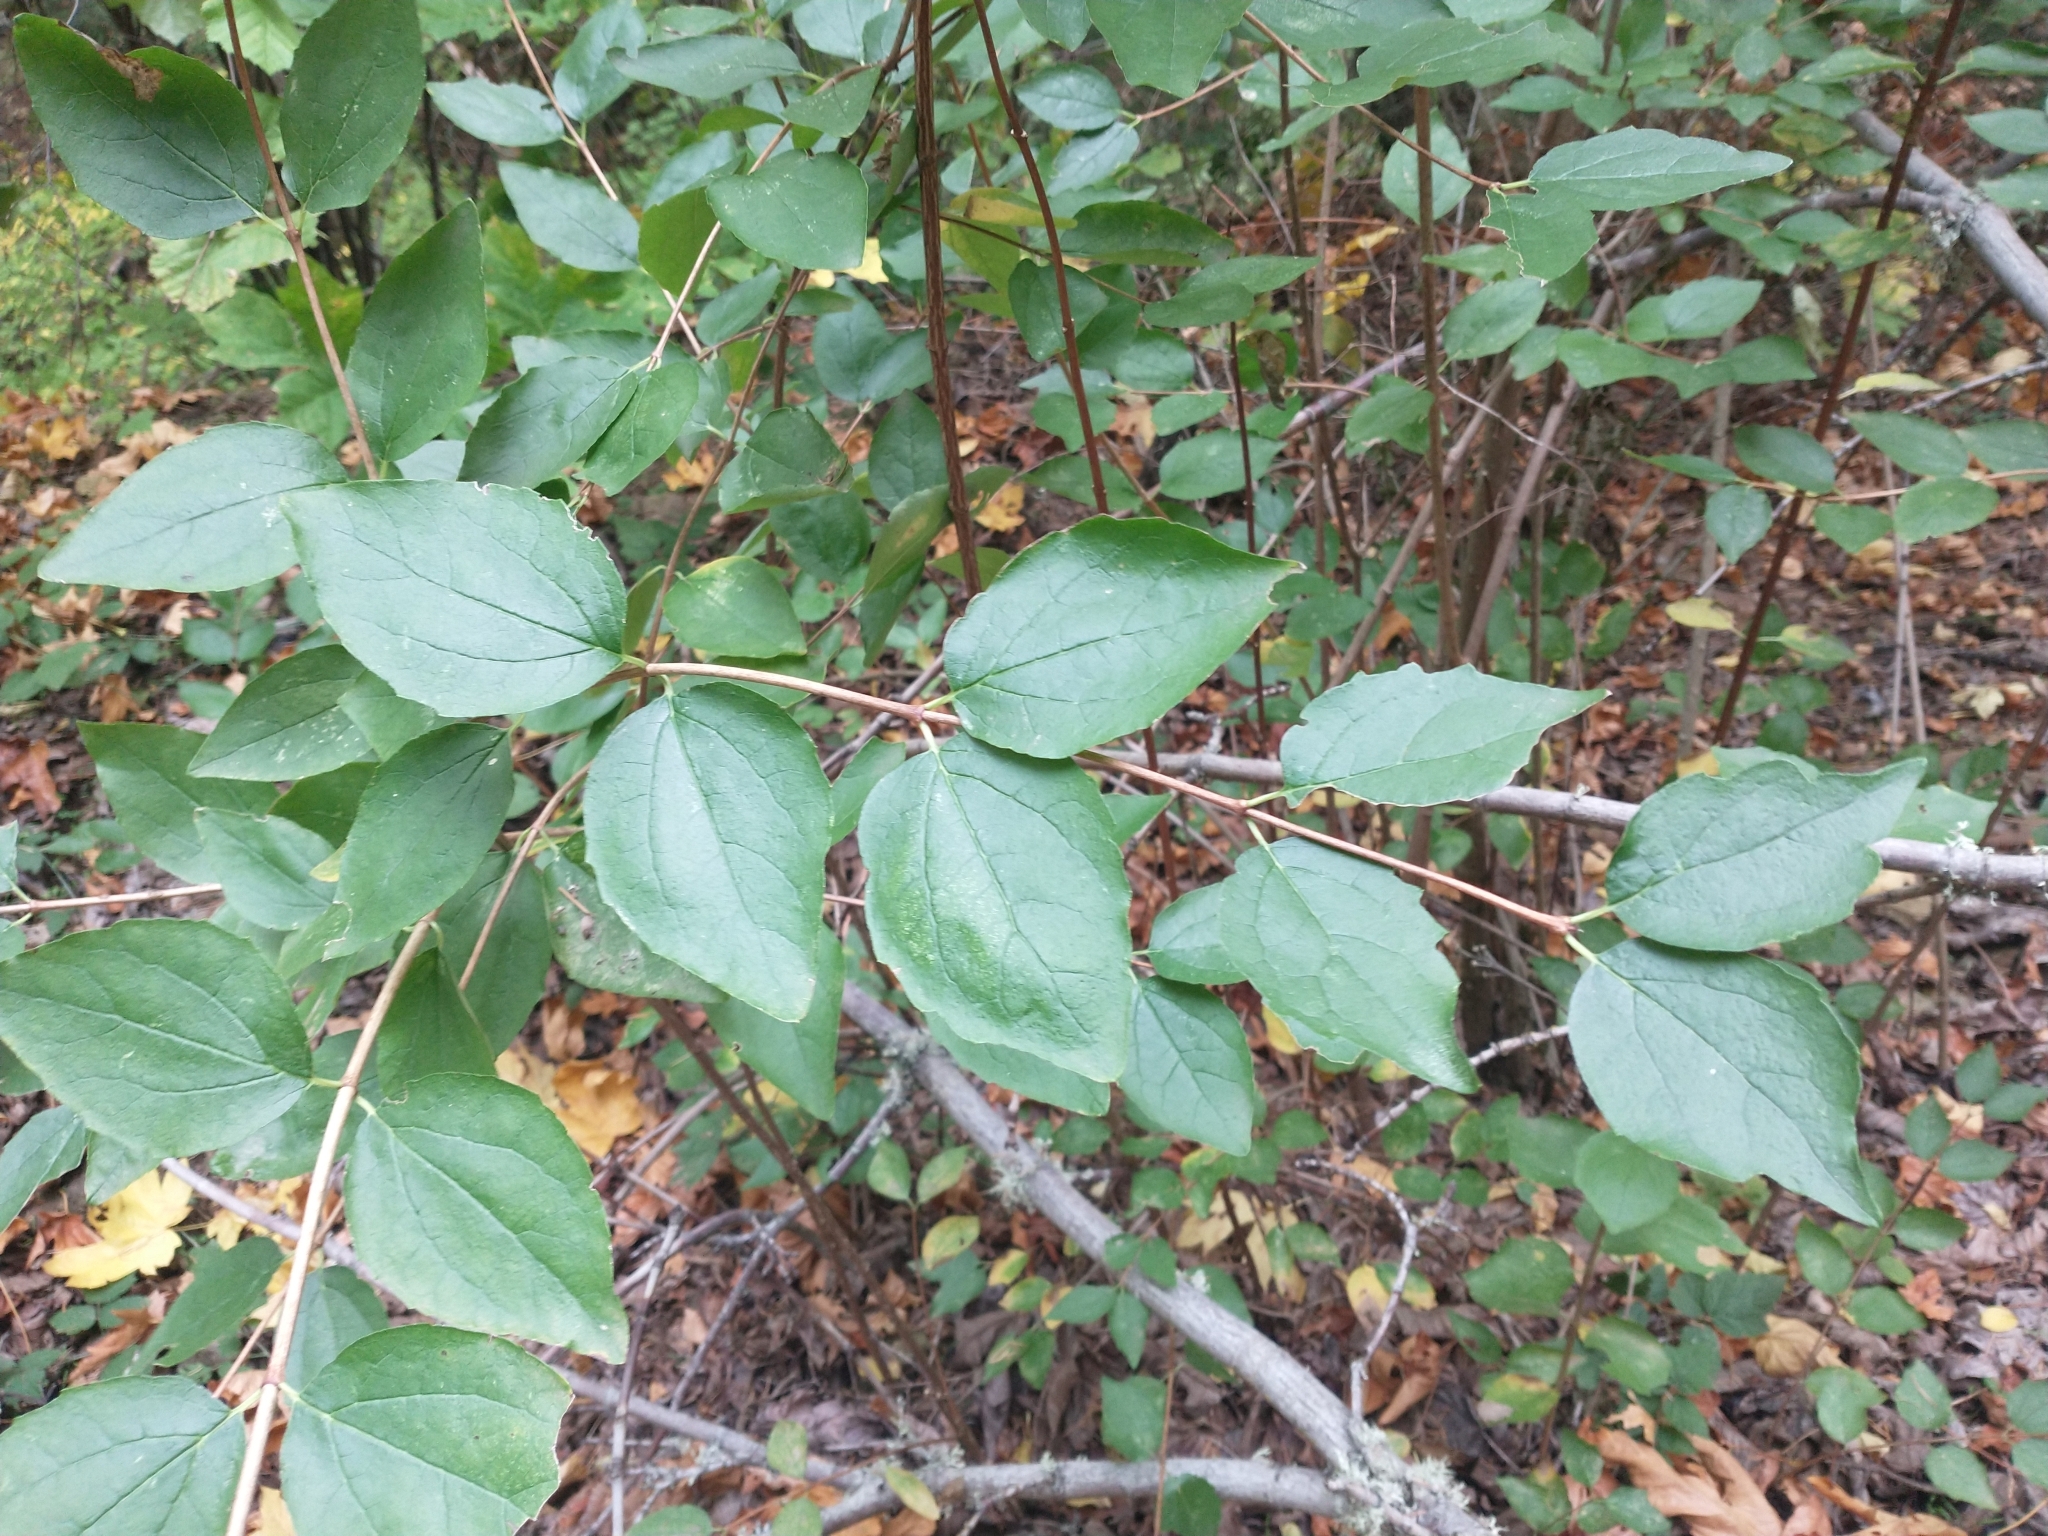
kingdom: Plantae
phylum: Tracheophyta
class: Magnoliopsida
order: Cornales
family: Hydrangeaceae
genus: Philadelphus
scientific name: Philadelphus lewisii
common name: Lewis's mock orange
